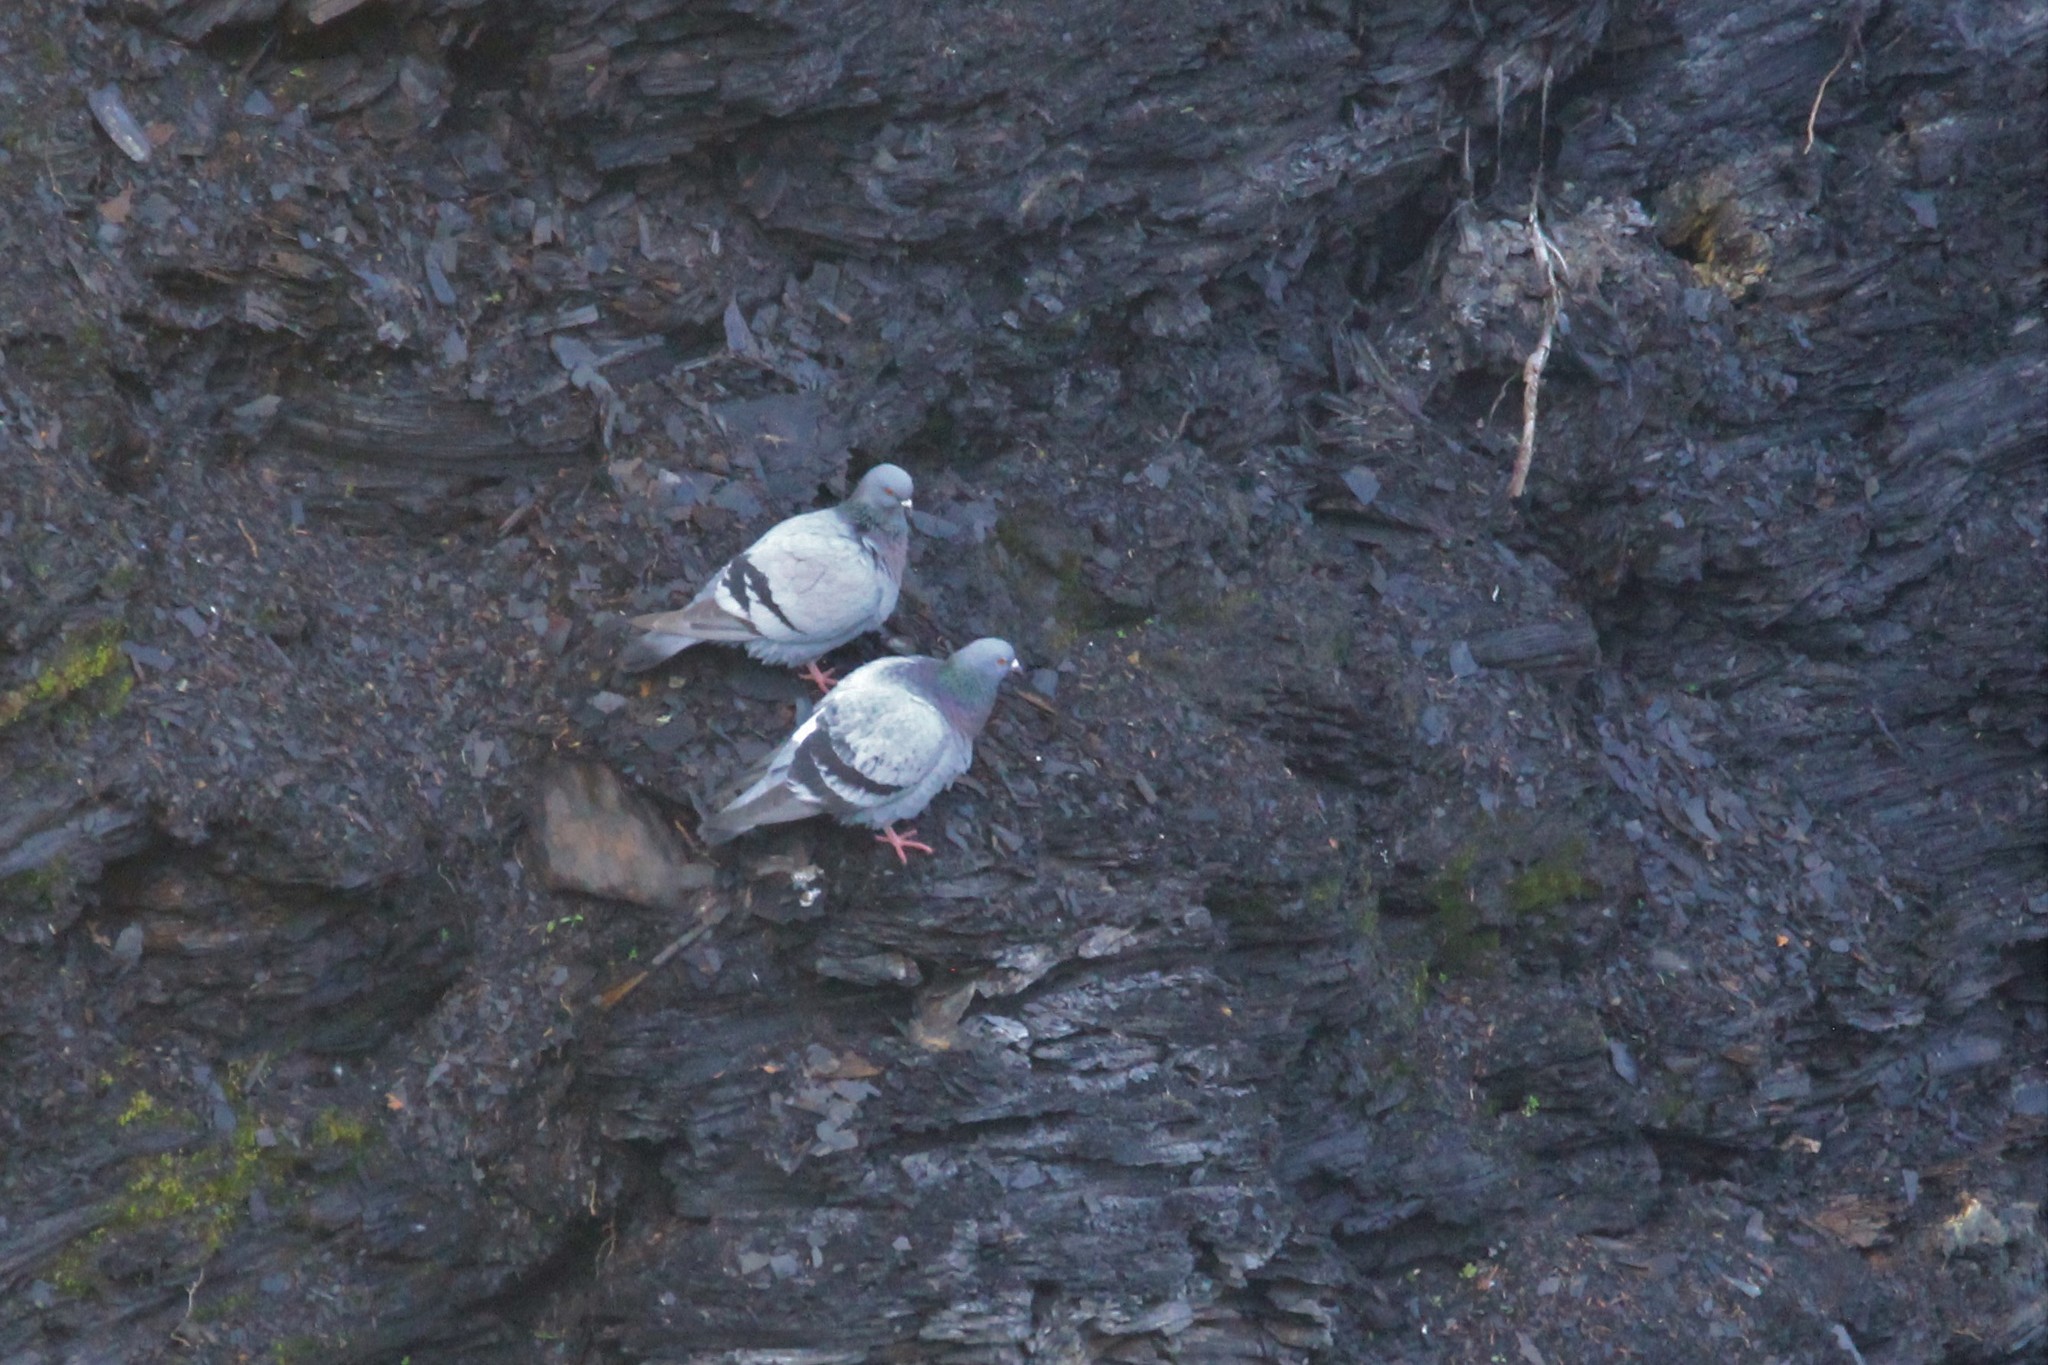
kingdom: Animalia
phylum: Chordata
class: Aves
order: Columbiformes
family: Columbidae
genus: Columba
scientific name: Columba livia
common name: Rock pigeon
